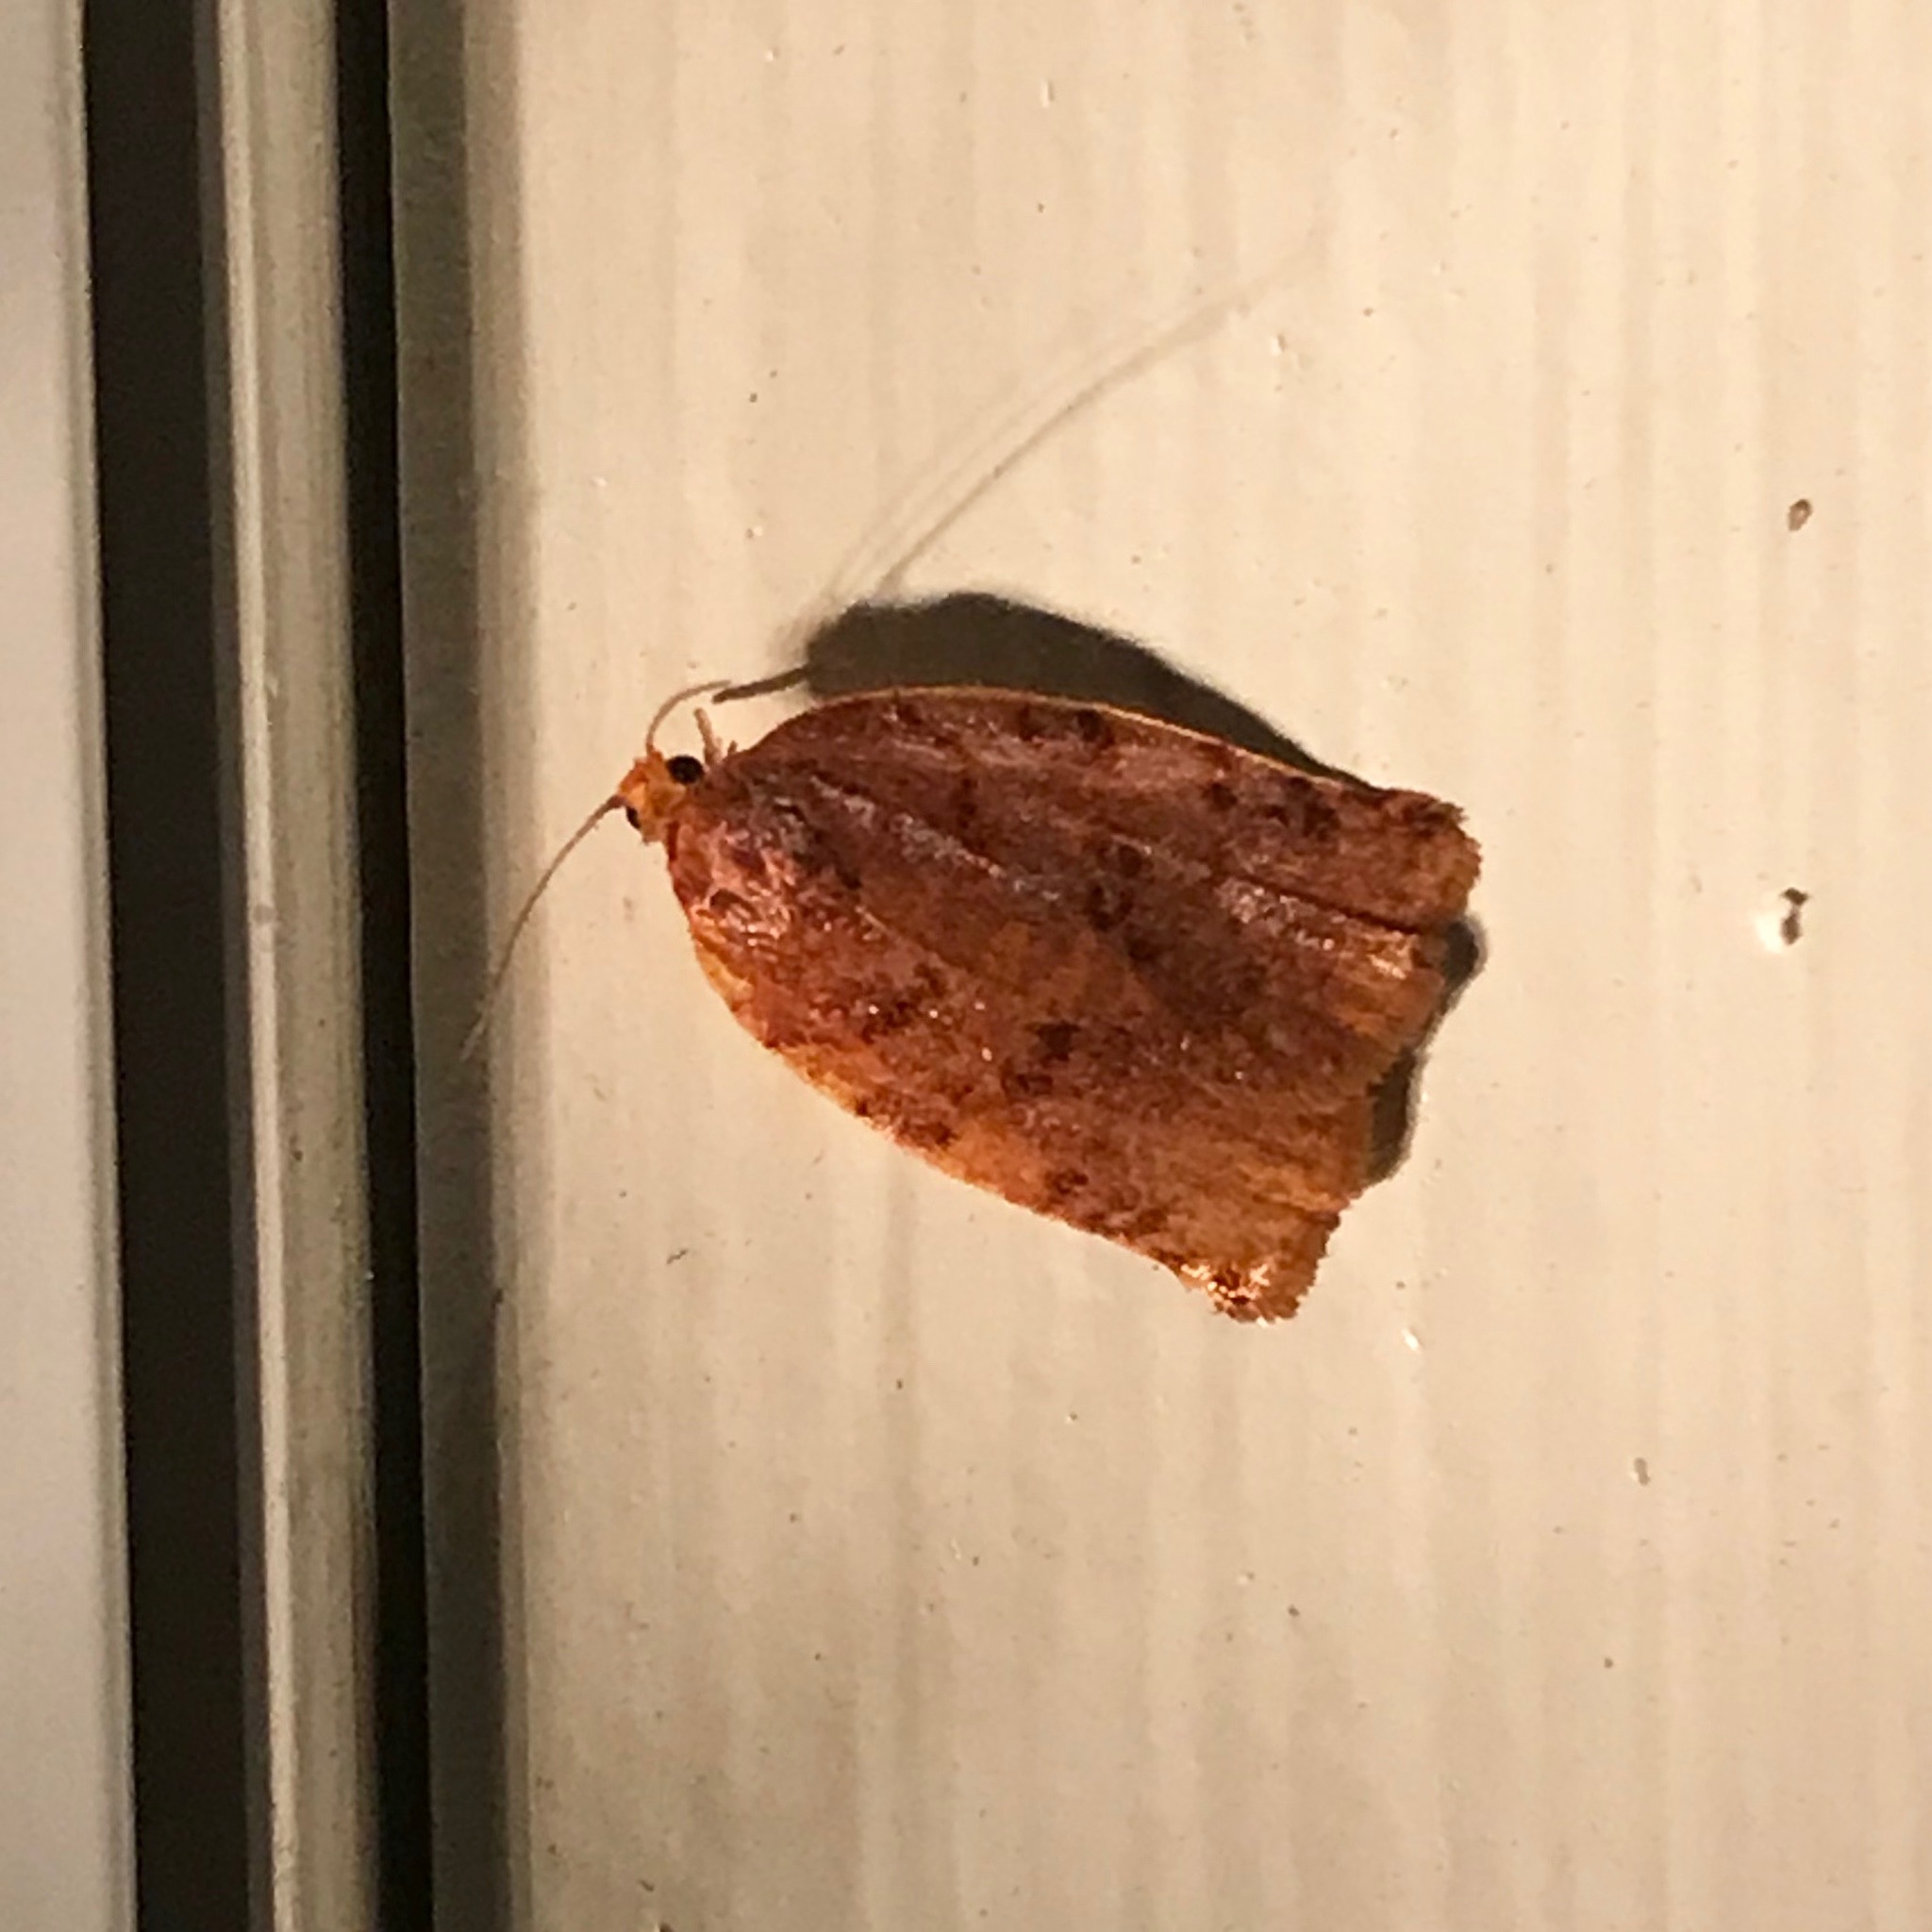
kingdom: Animalia
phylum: Arthropoda
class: Insecta
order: Lepidoptera
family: Tortricidae
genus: Archips
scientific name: Archips cerasivorana
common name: Uglynest caterpillar
